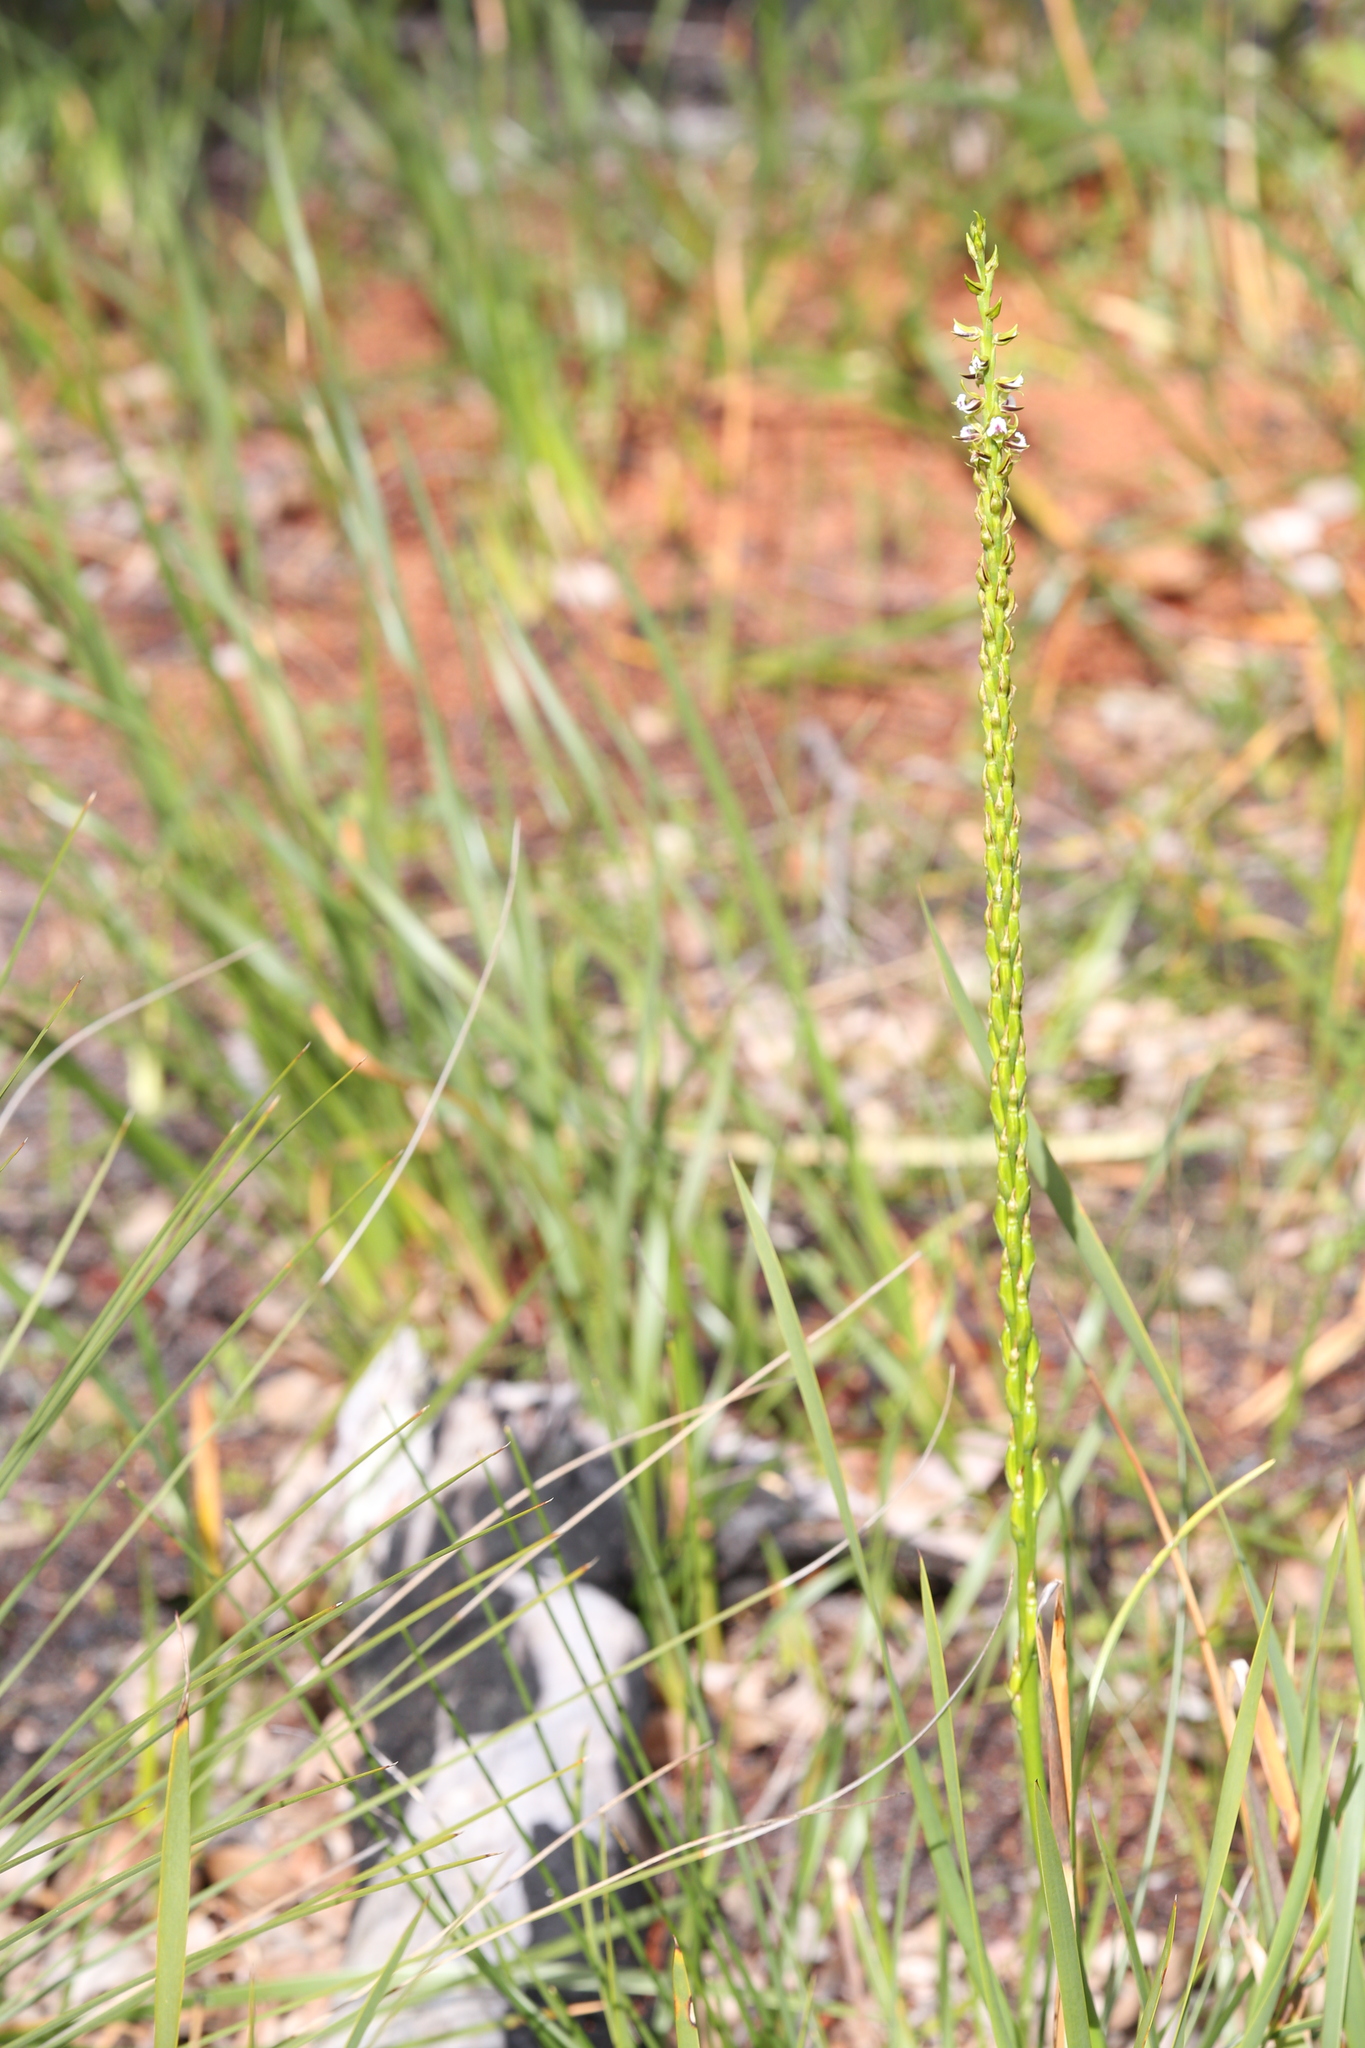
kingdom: Plantae
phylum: Tracheophyta
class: Liliopsida
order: Asparagales
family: Orchidaceae
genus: Prasophyllum
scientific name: Prasophyllum fimbria
